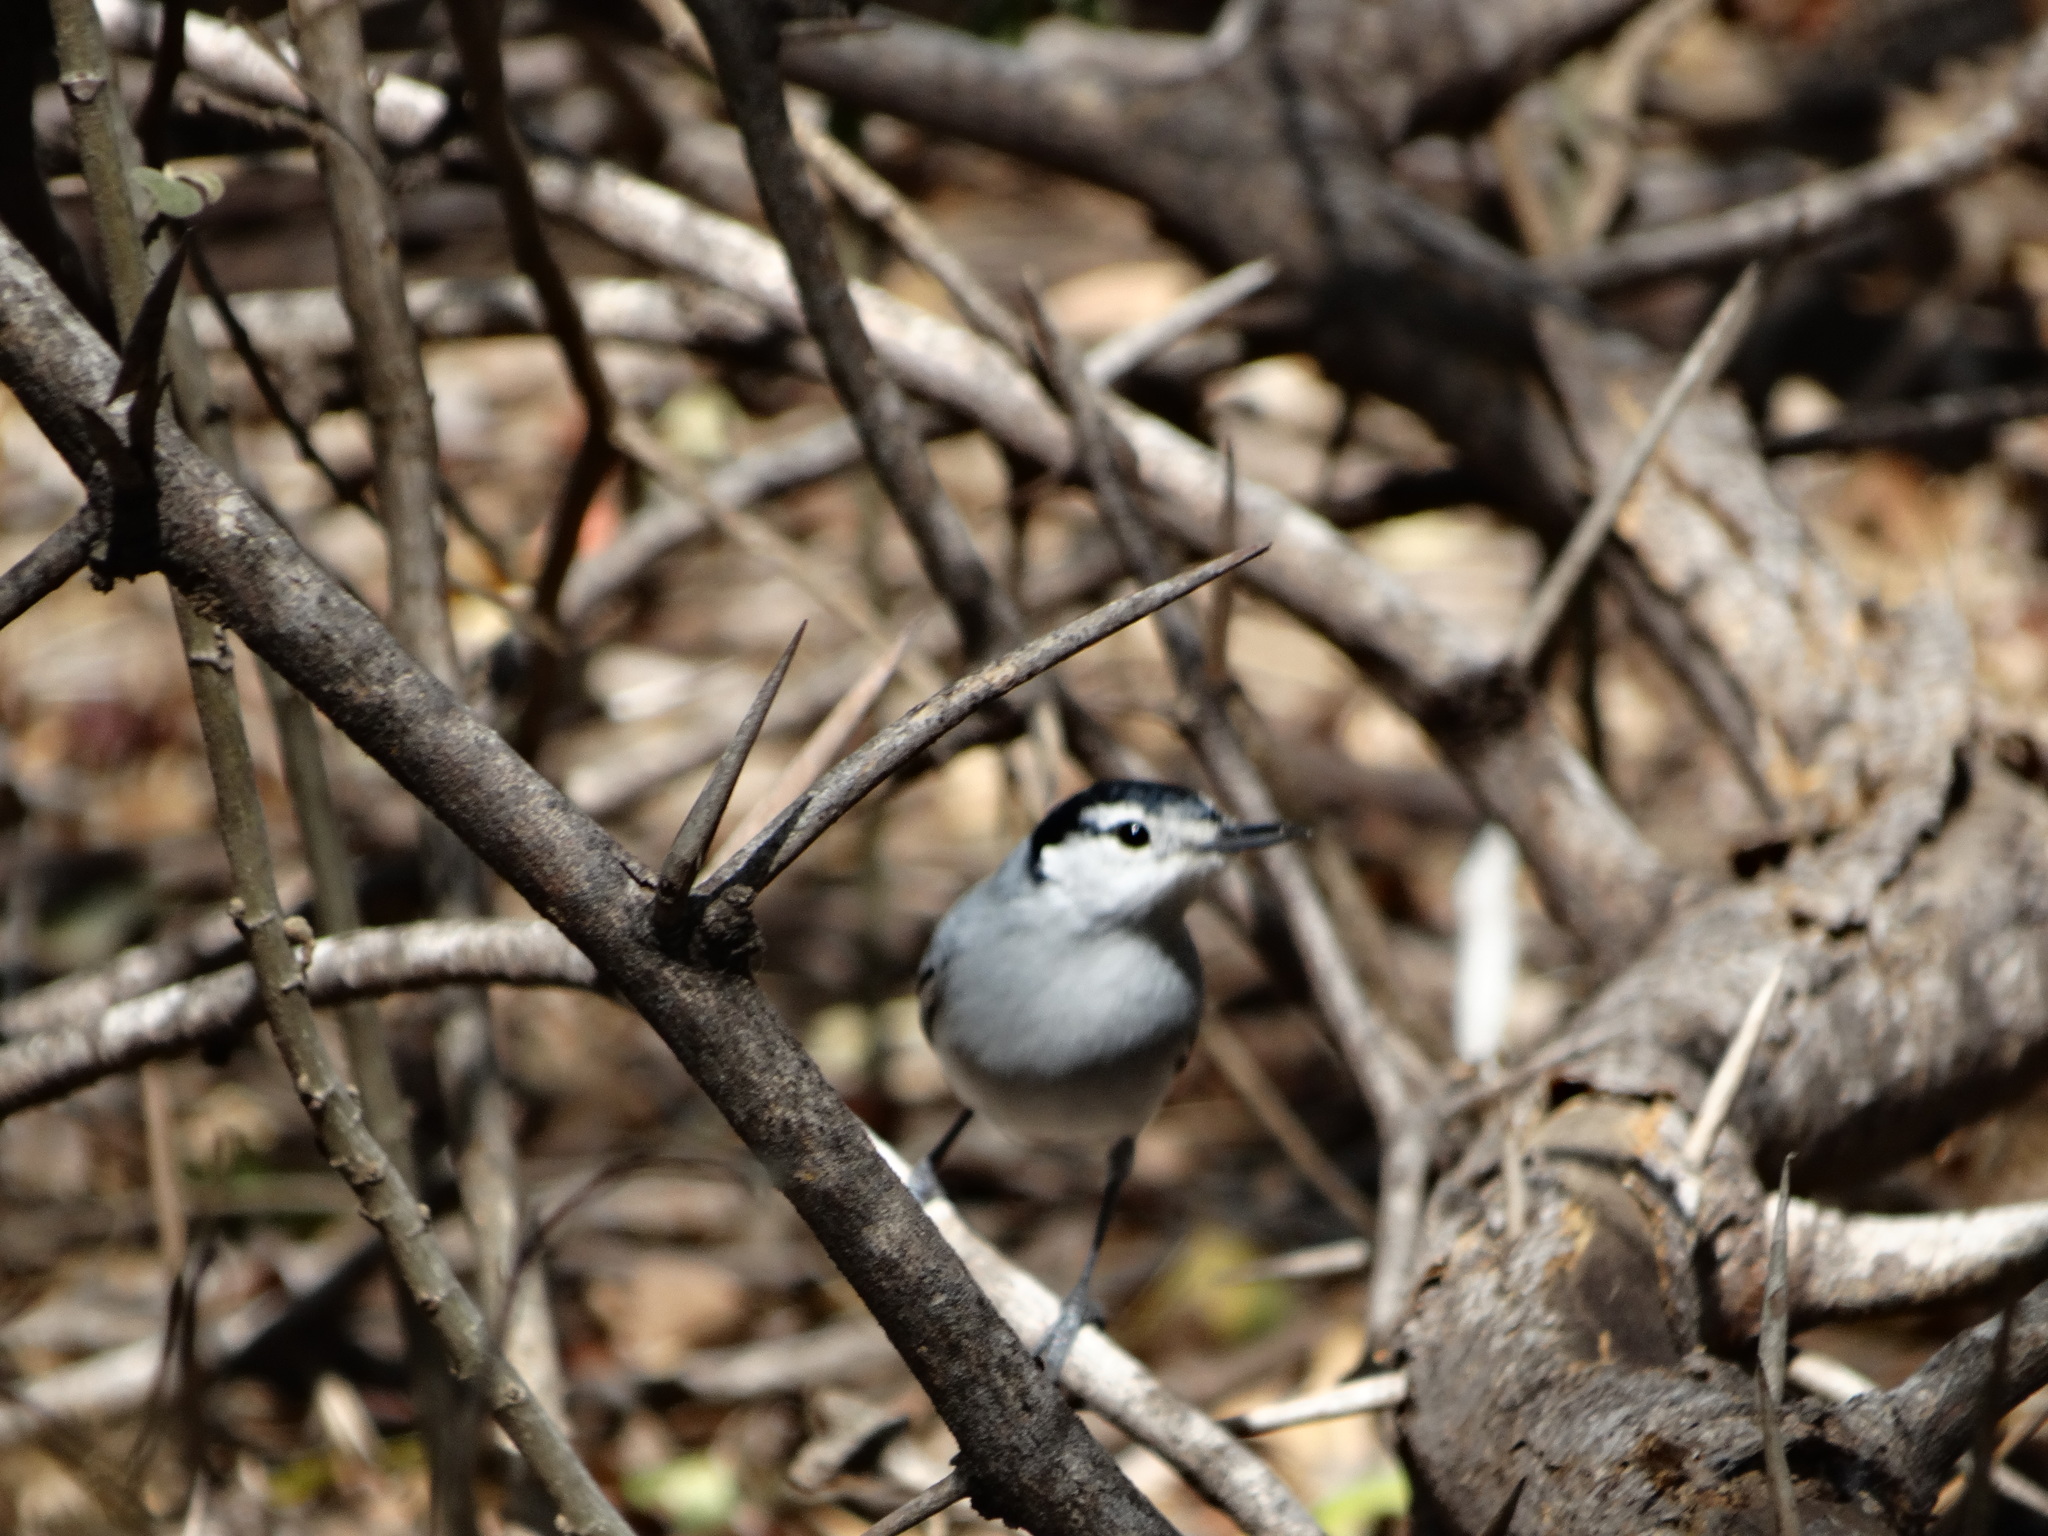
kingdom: Animalia
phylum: Chordata
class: Aves
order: Passeriformes
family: Polioptilidae
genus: Polioptila
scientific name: Polioptila albiloris
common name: White-lored gnatcatcher
